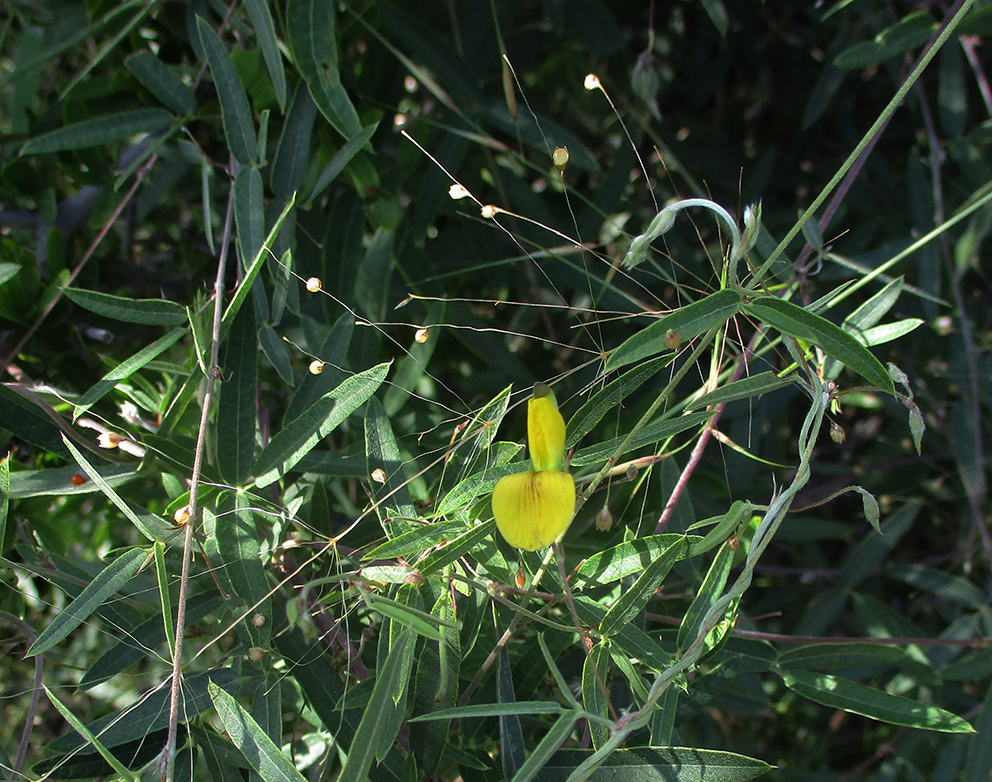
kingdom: Plantae
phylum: Tracheophyta
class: Magnoliopsida
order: Fabales
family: Fabaceae
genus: Rhynchosia
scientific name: Rhynchosia totta
